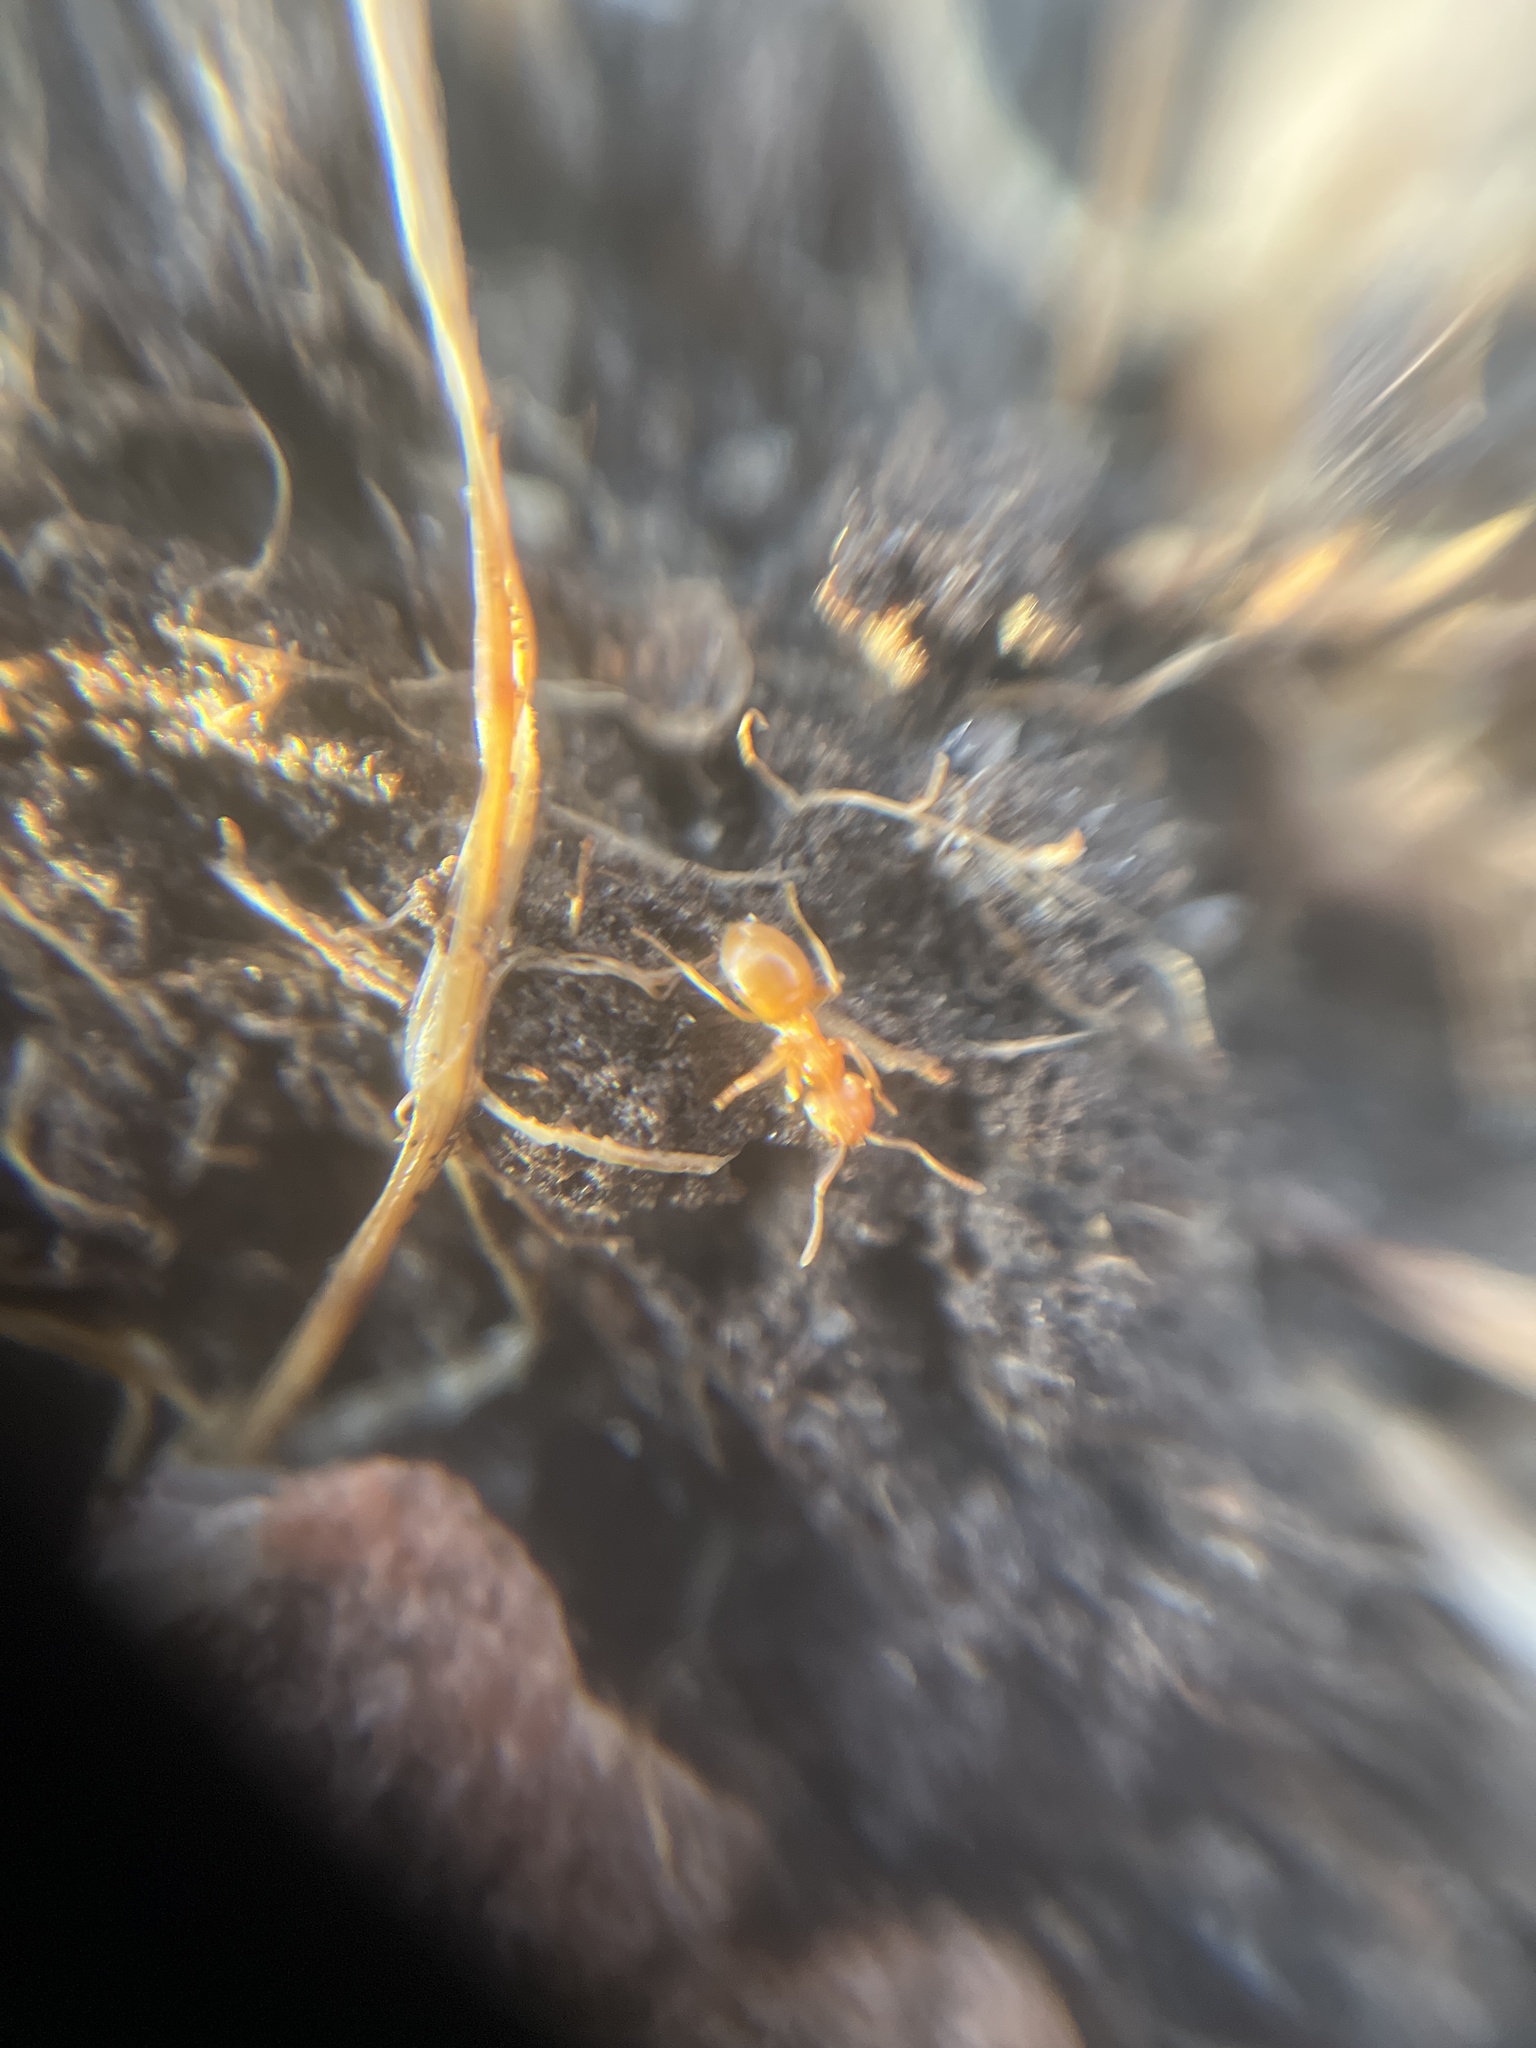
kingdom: Animalia
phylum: Arthropoda
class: Insecta
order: Hymenoptera
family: Formicidae
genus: Lasius
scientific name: Lasius flavus
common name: Blond field ant
